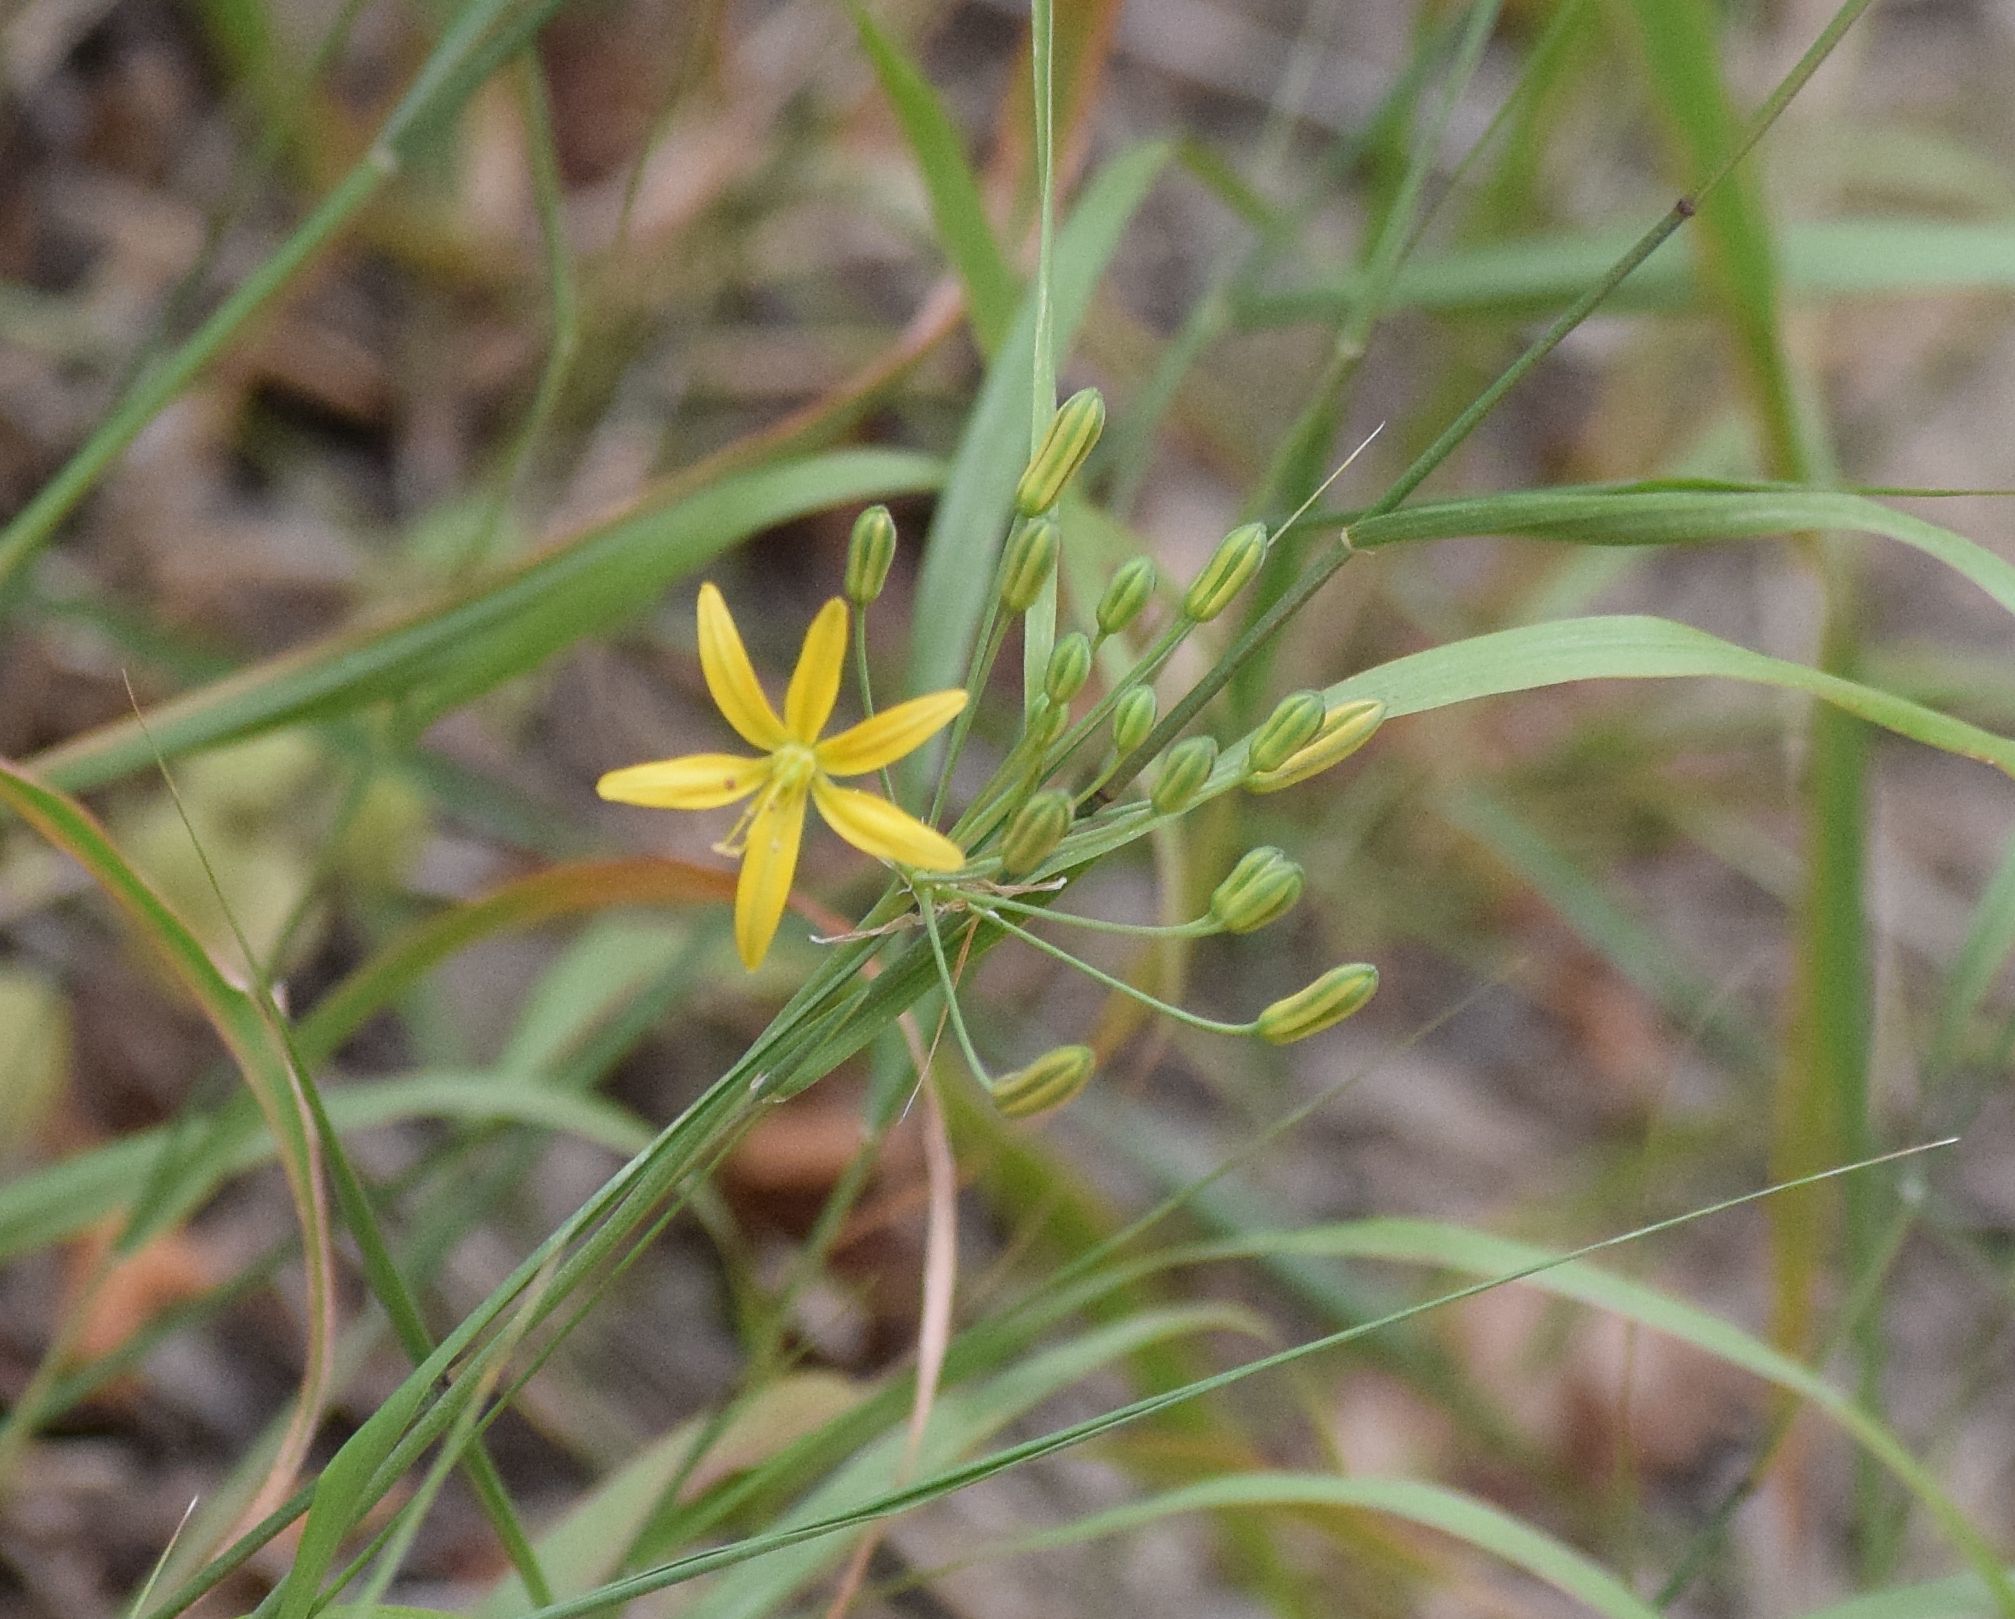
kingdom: Plantae
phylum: Tracheophyta
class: Liliopsida
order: Asparagales
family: Asparagaceae
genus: Bloomeria
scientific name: Bloomeria crocea
